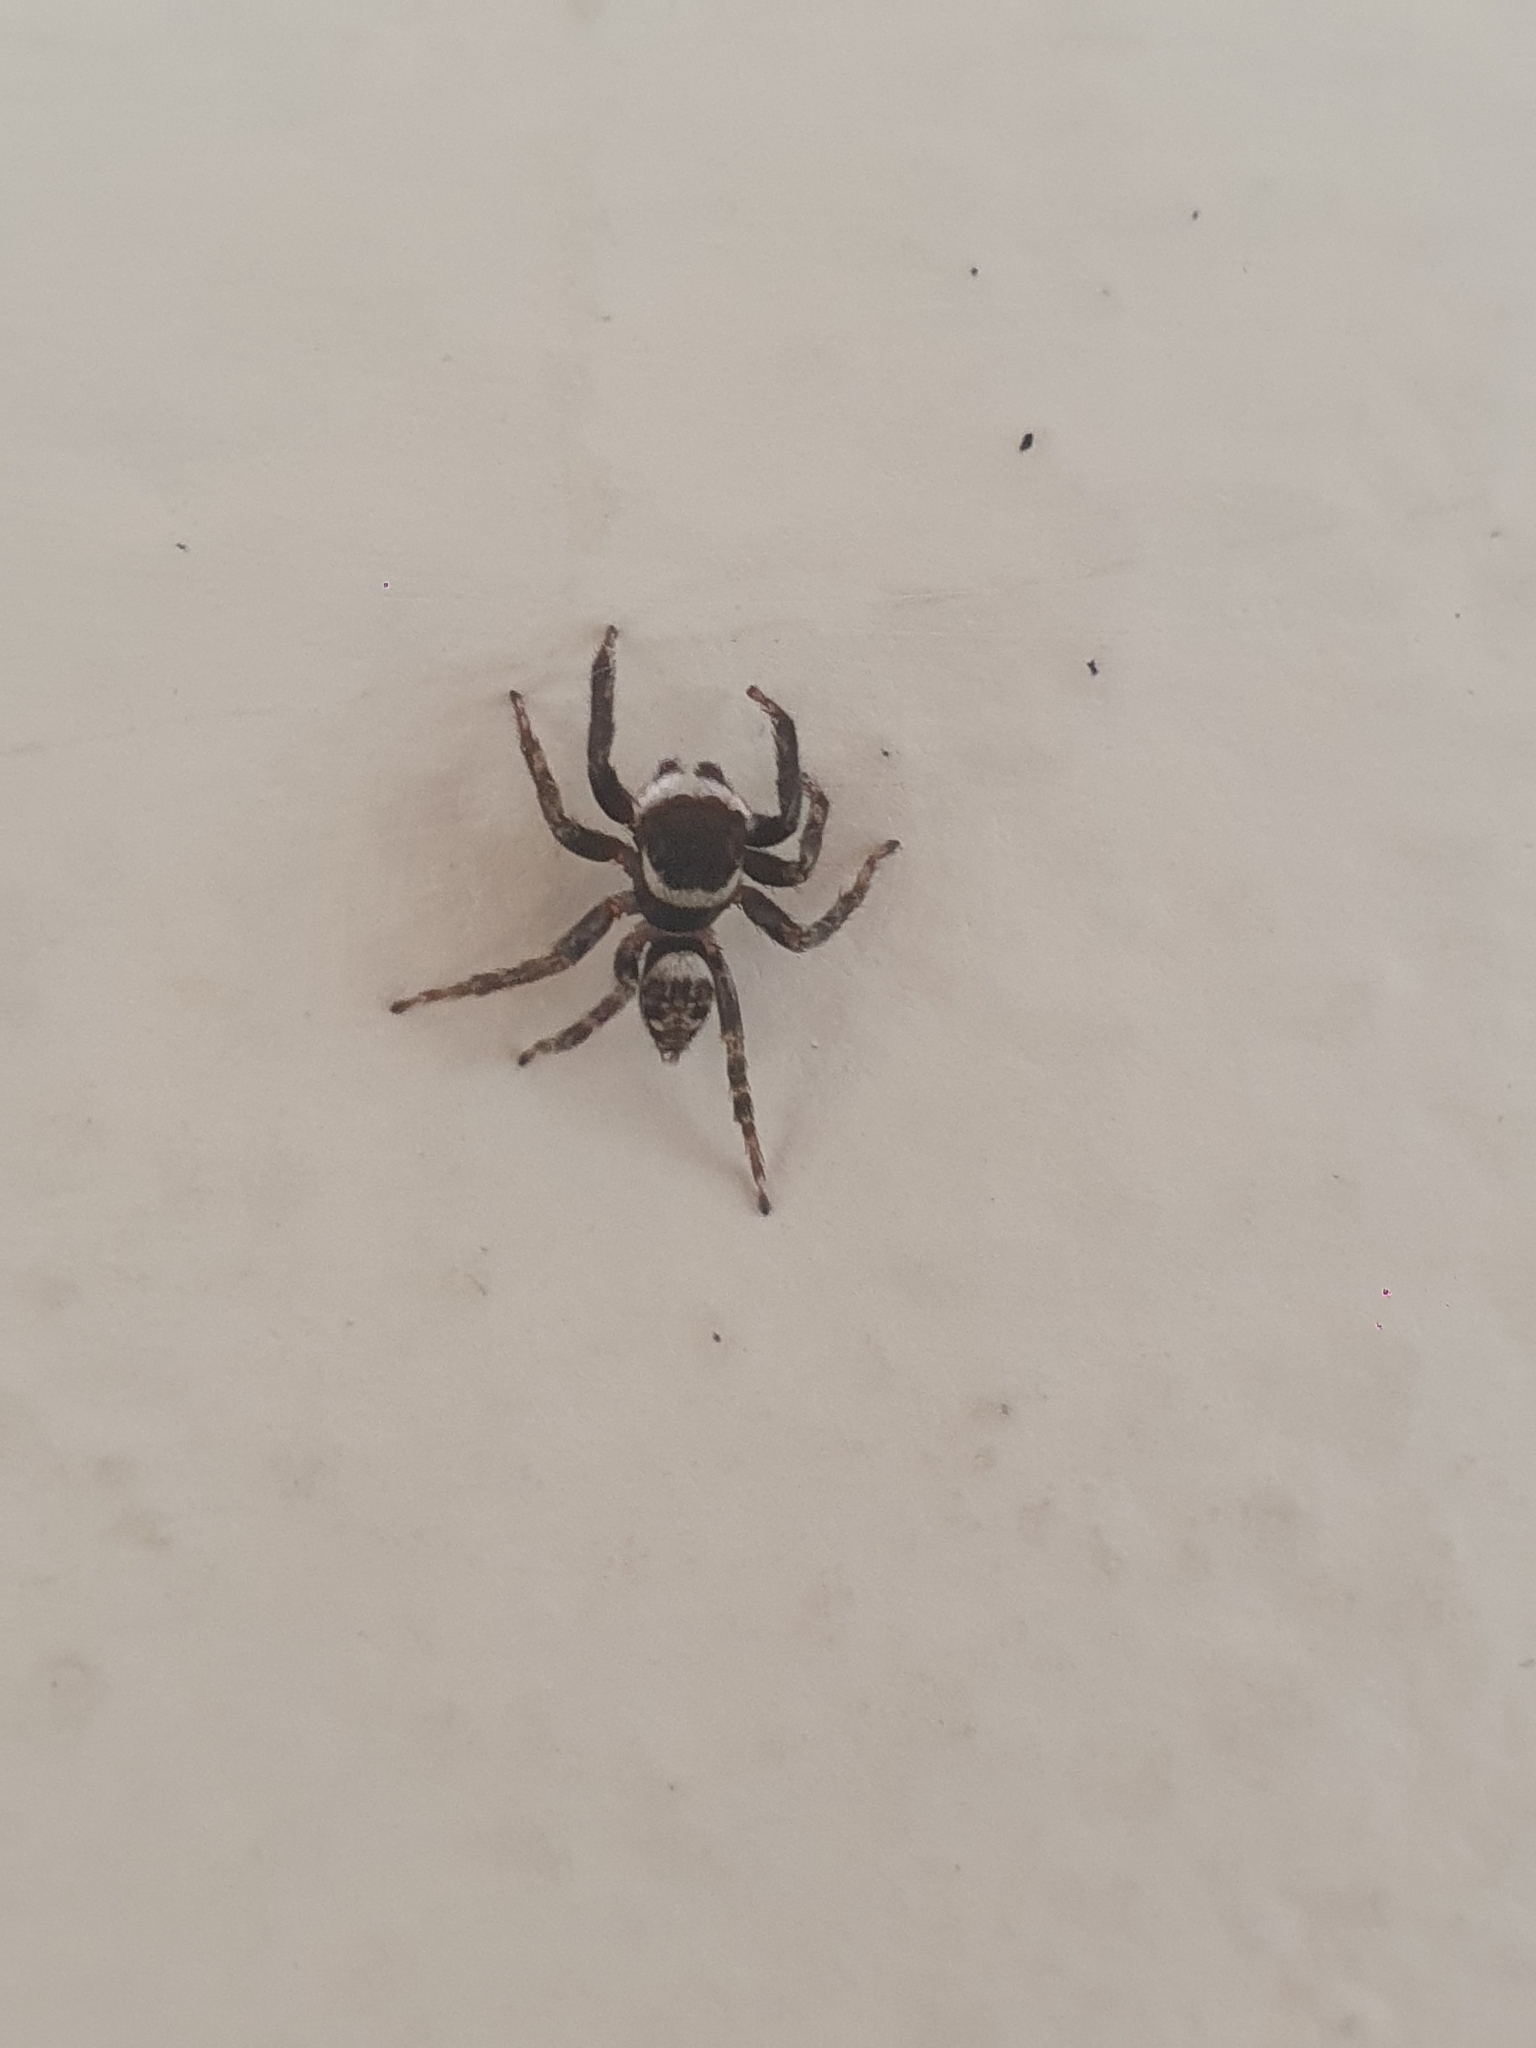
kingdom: Animalia
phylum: Arthropoda
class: Arachnida
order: Araneae
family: Salticidae
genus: Hasarius
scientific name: Hasarius adansoni
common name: Jumping spider
